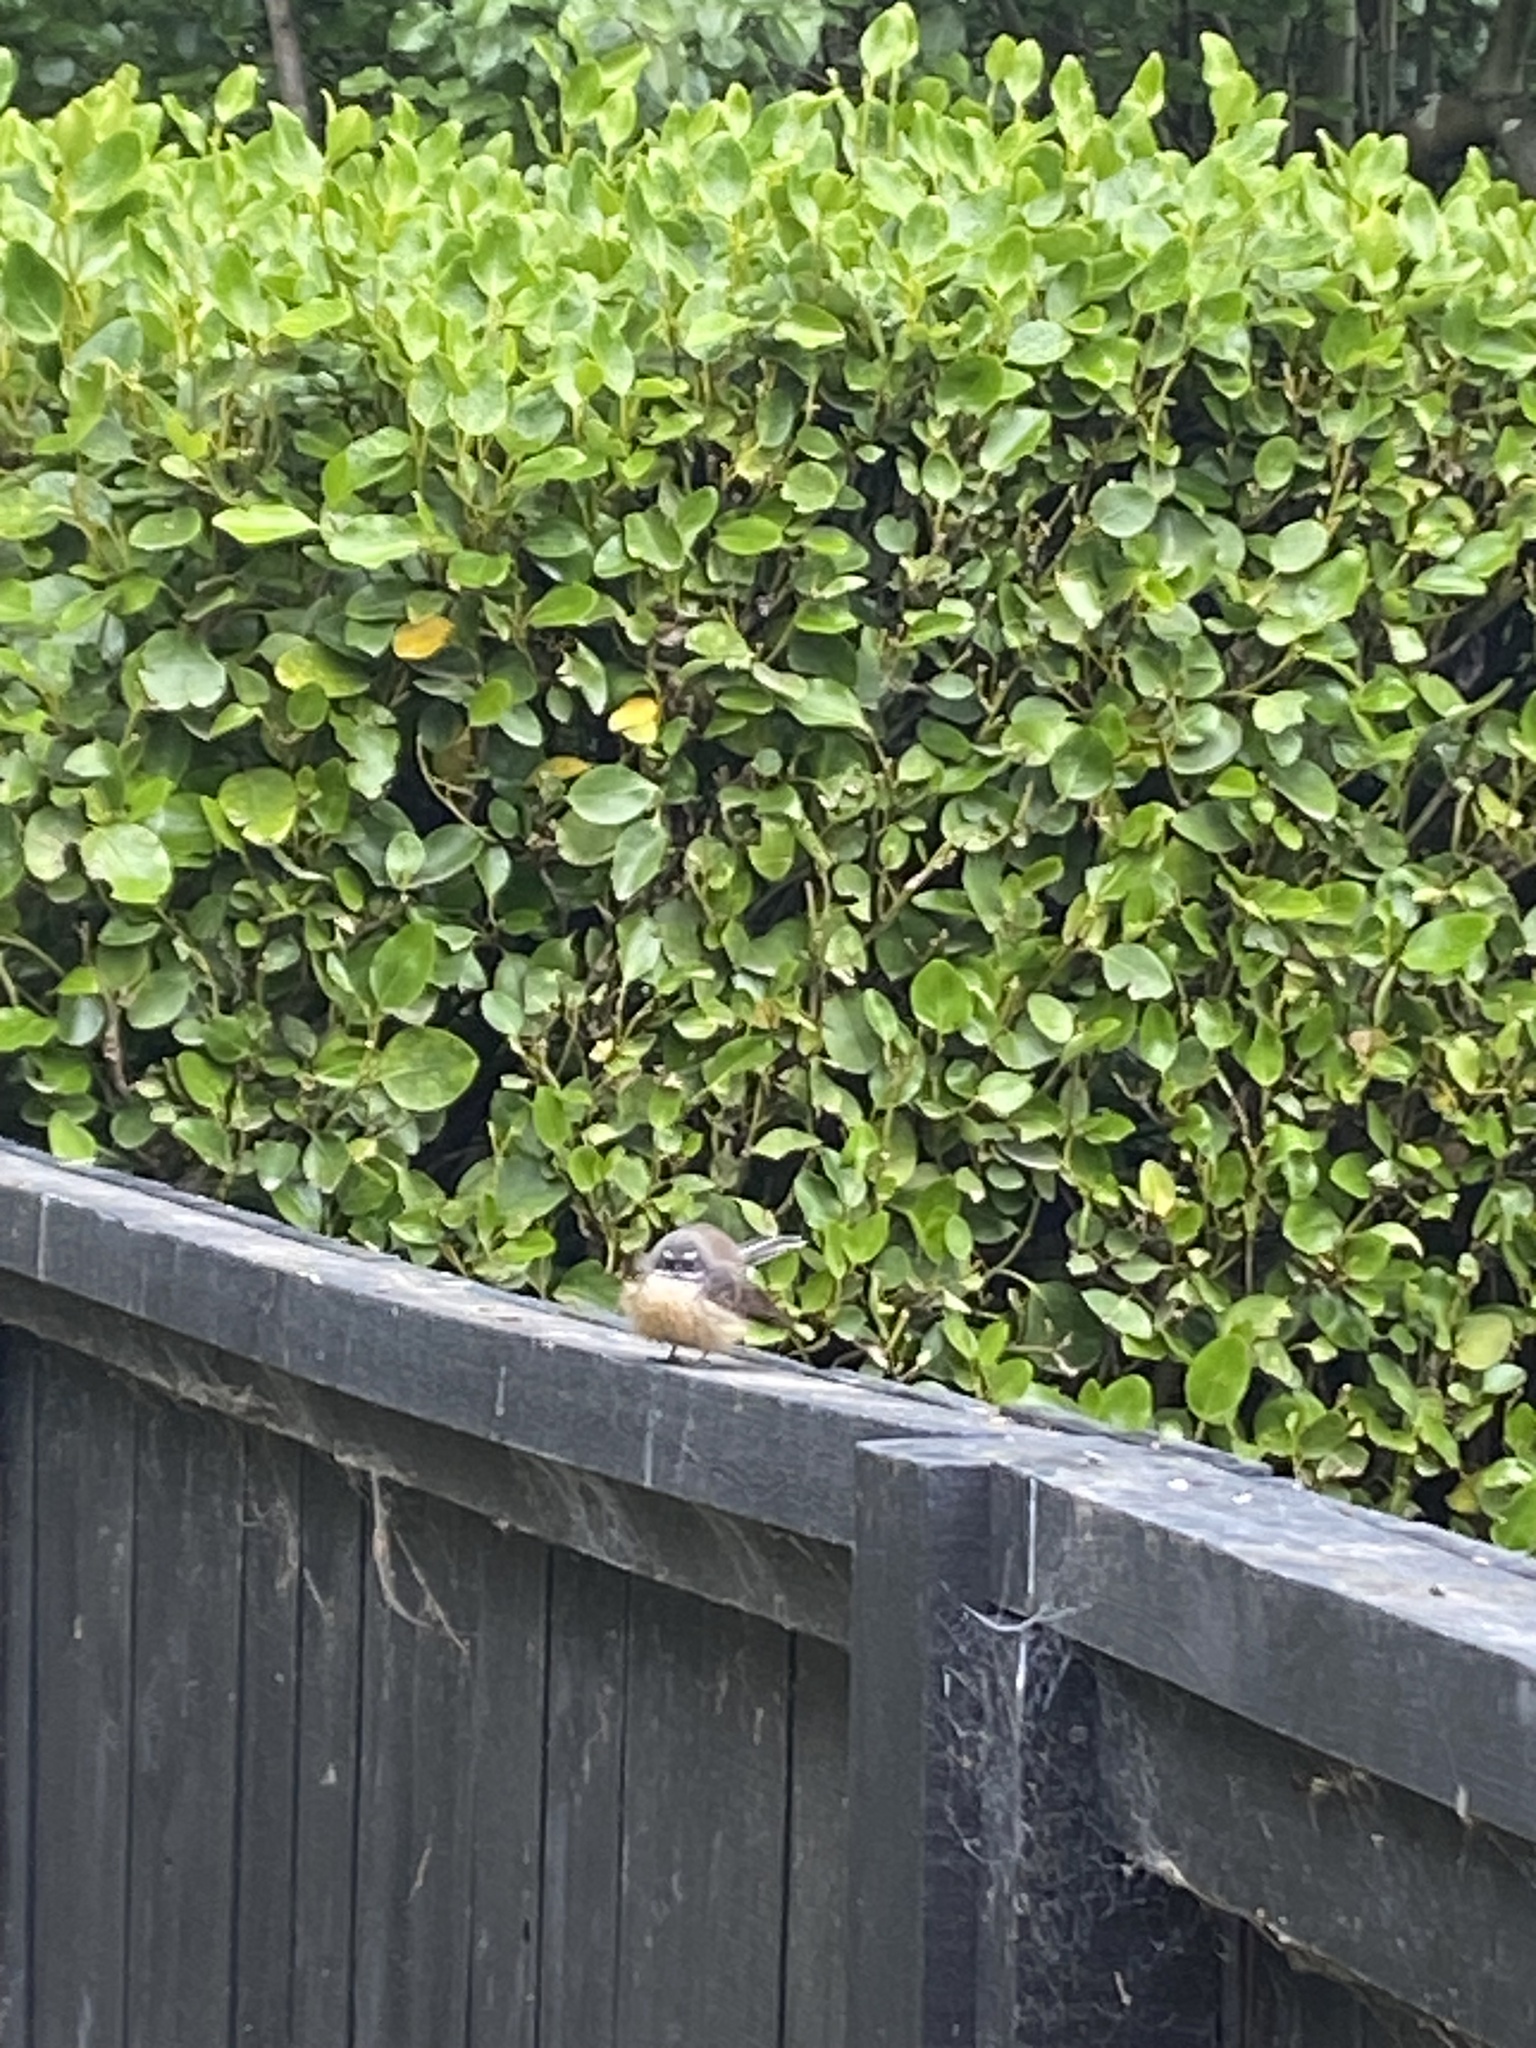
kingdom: Animalia
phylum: Chordata
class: Aves
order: Passeriformes
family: Rhipiduridae
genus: Rhipidura
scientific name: Rhipidura fuliginosa
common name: New zealand fantail
